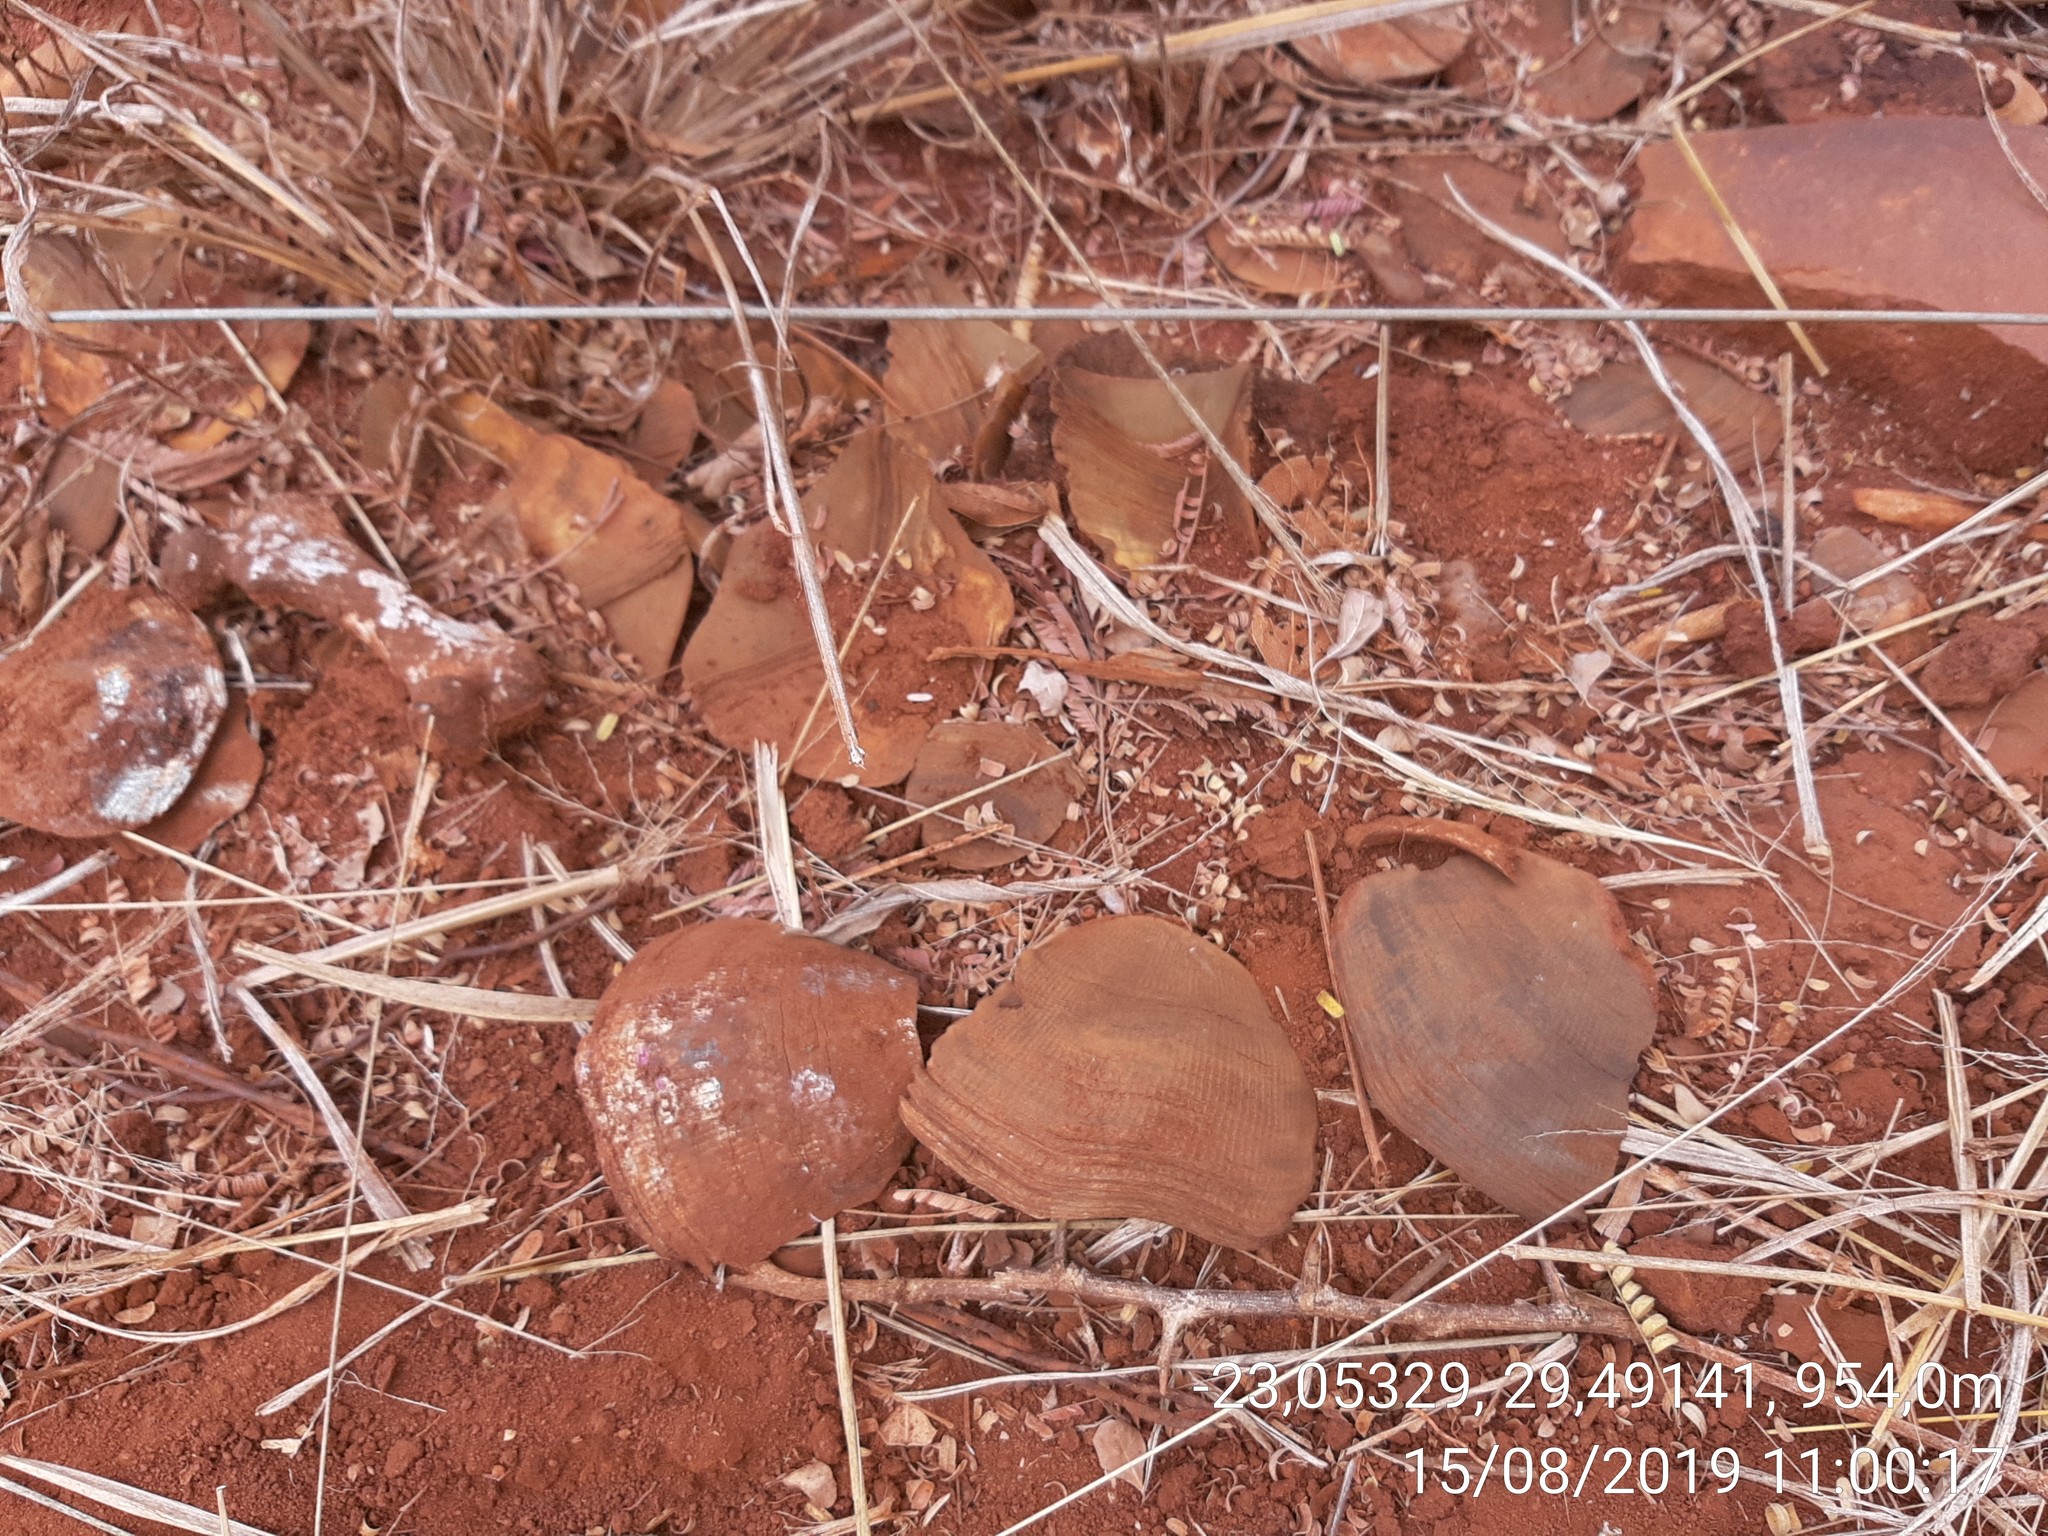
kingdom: Animalia
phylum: Chordata
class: Mammalia
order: Pholidota
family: Manidae
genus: Manis
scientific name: Manis temminckii
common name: Ground pangolin
